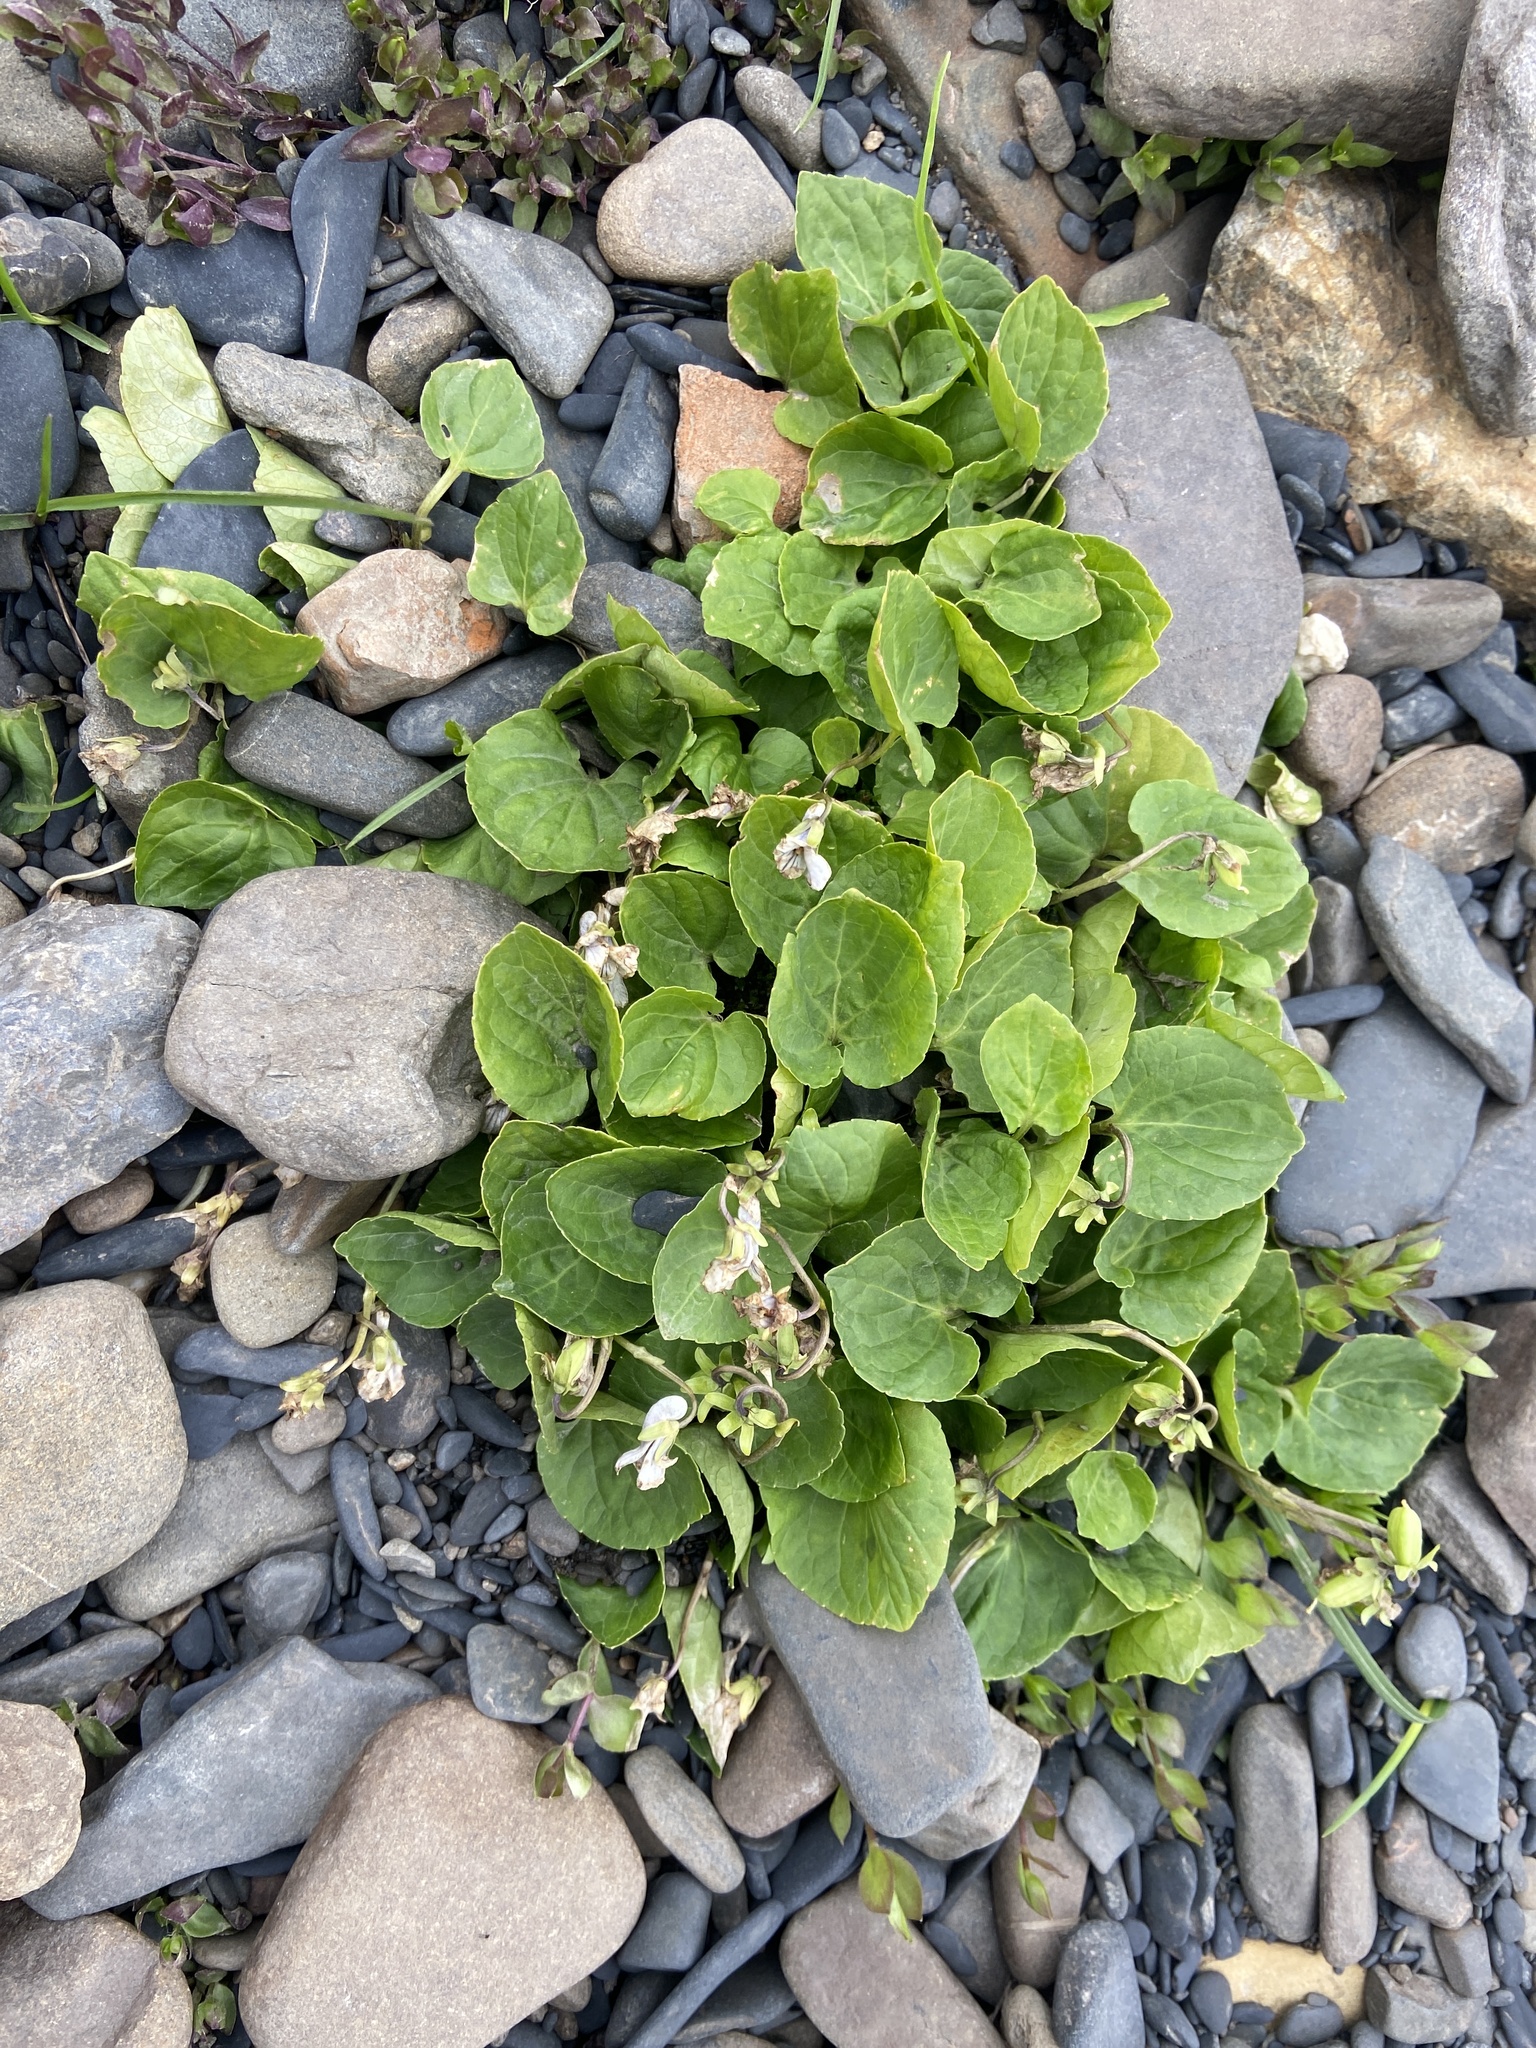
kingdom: Plantae
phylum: Tracheophyta
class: Magnoliopsida
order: Malpighiales
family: Violaceae
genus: Viola
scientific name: Viola epipsila
